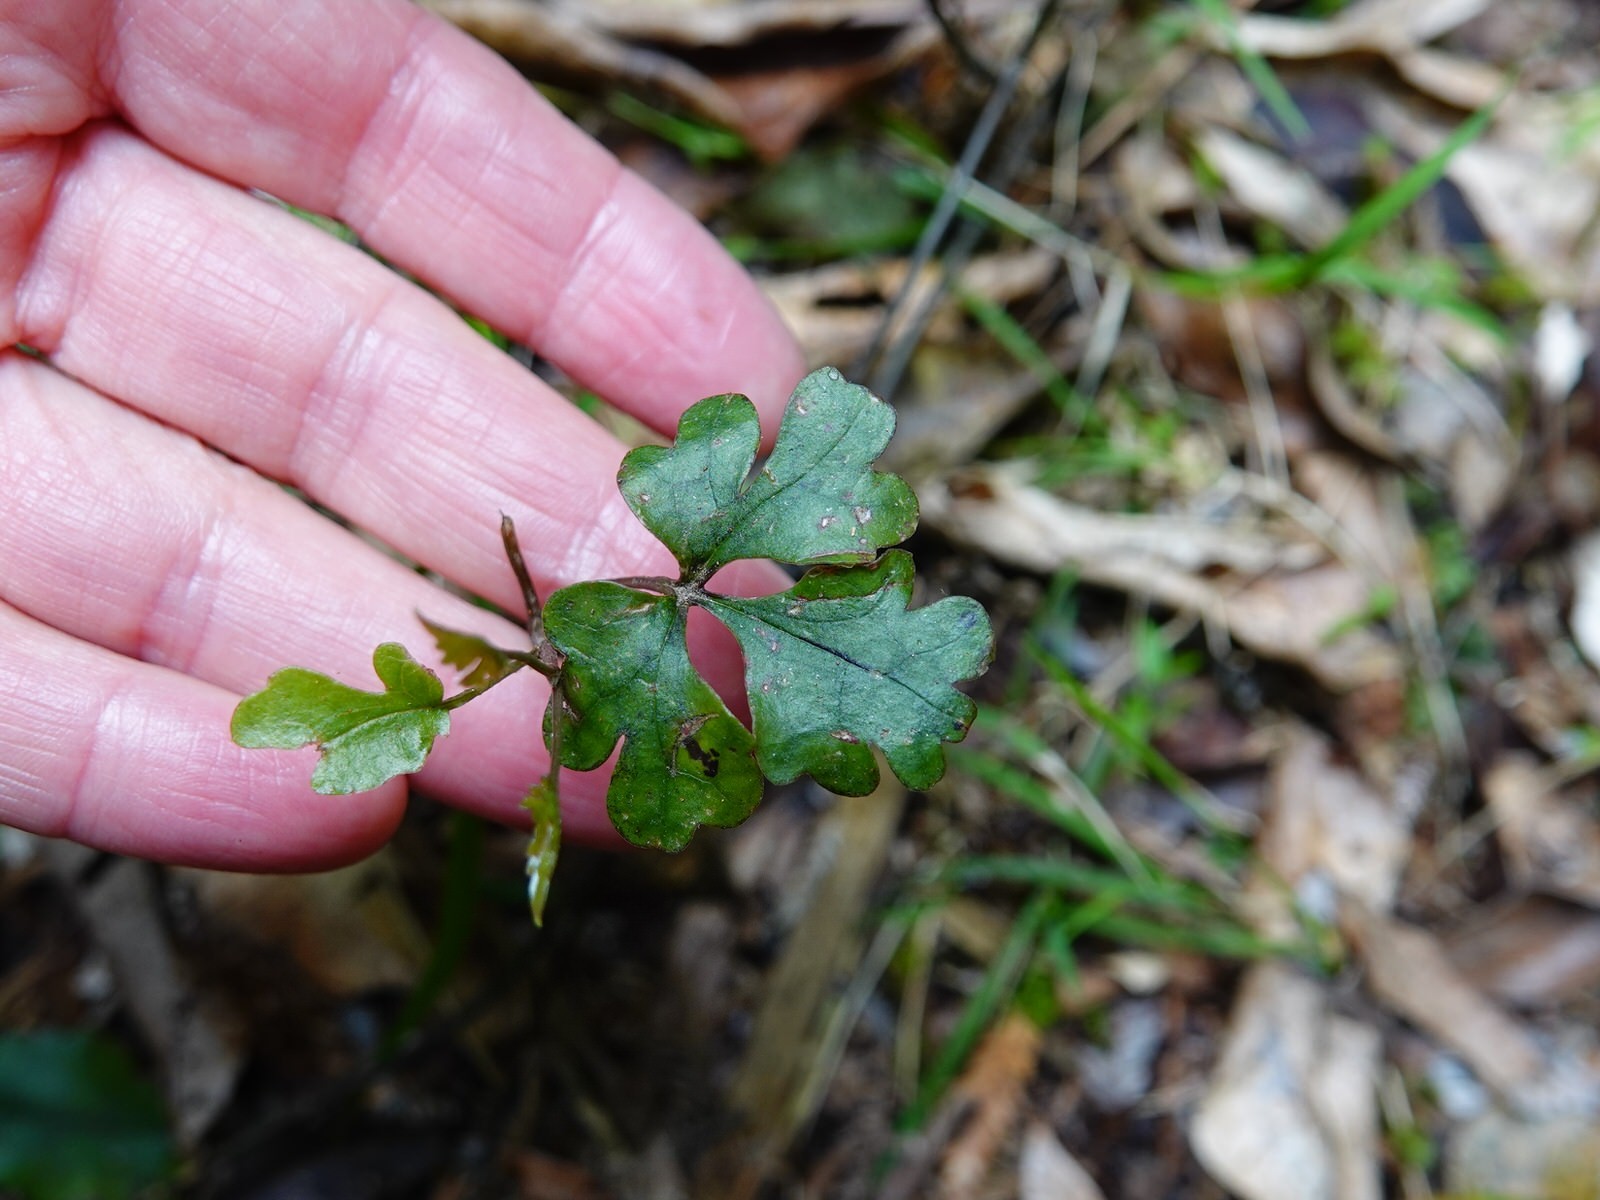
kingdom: Plantae
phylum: Tracheophyta
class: Magnoliopsida
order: Ranunculales
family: Ranunculaceae
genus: Clematis
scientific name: Clematis paniculata
